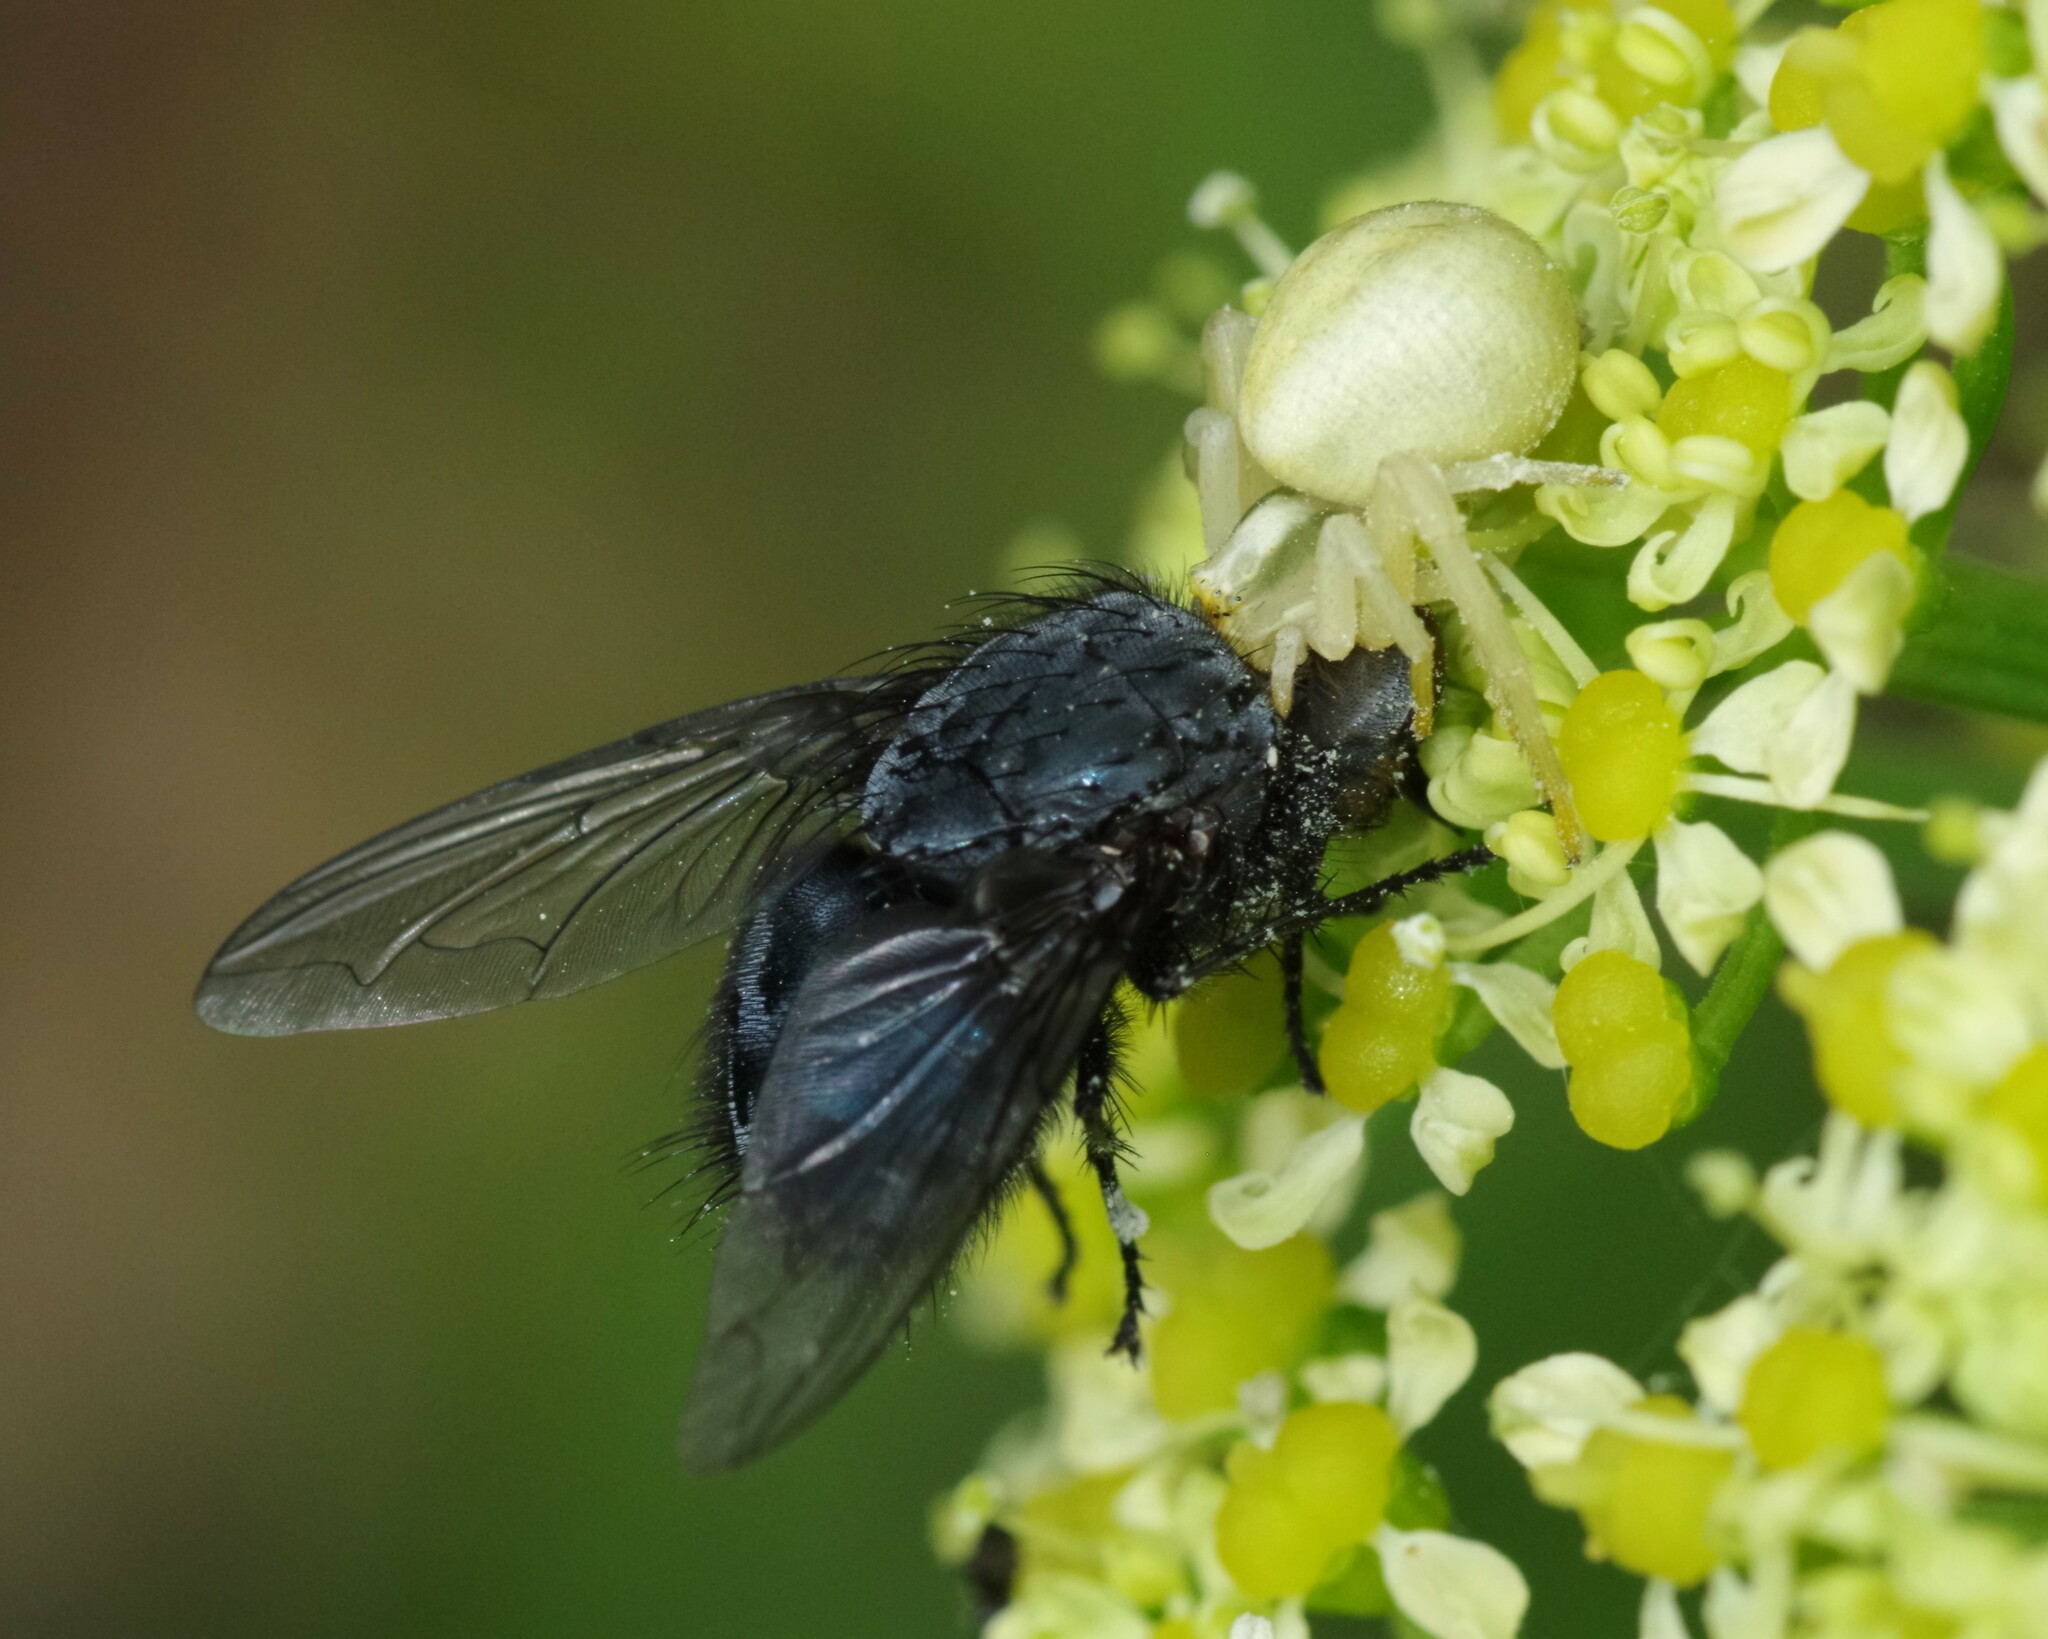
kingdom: Animalia
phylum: Arthropoda
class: Arachnida
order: Araneae
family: Thomisidae
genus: Misumena
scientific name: Misumena vatia
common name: Goldenrod crab spider
